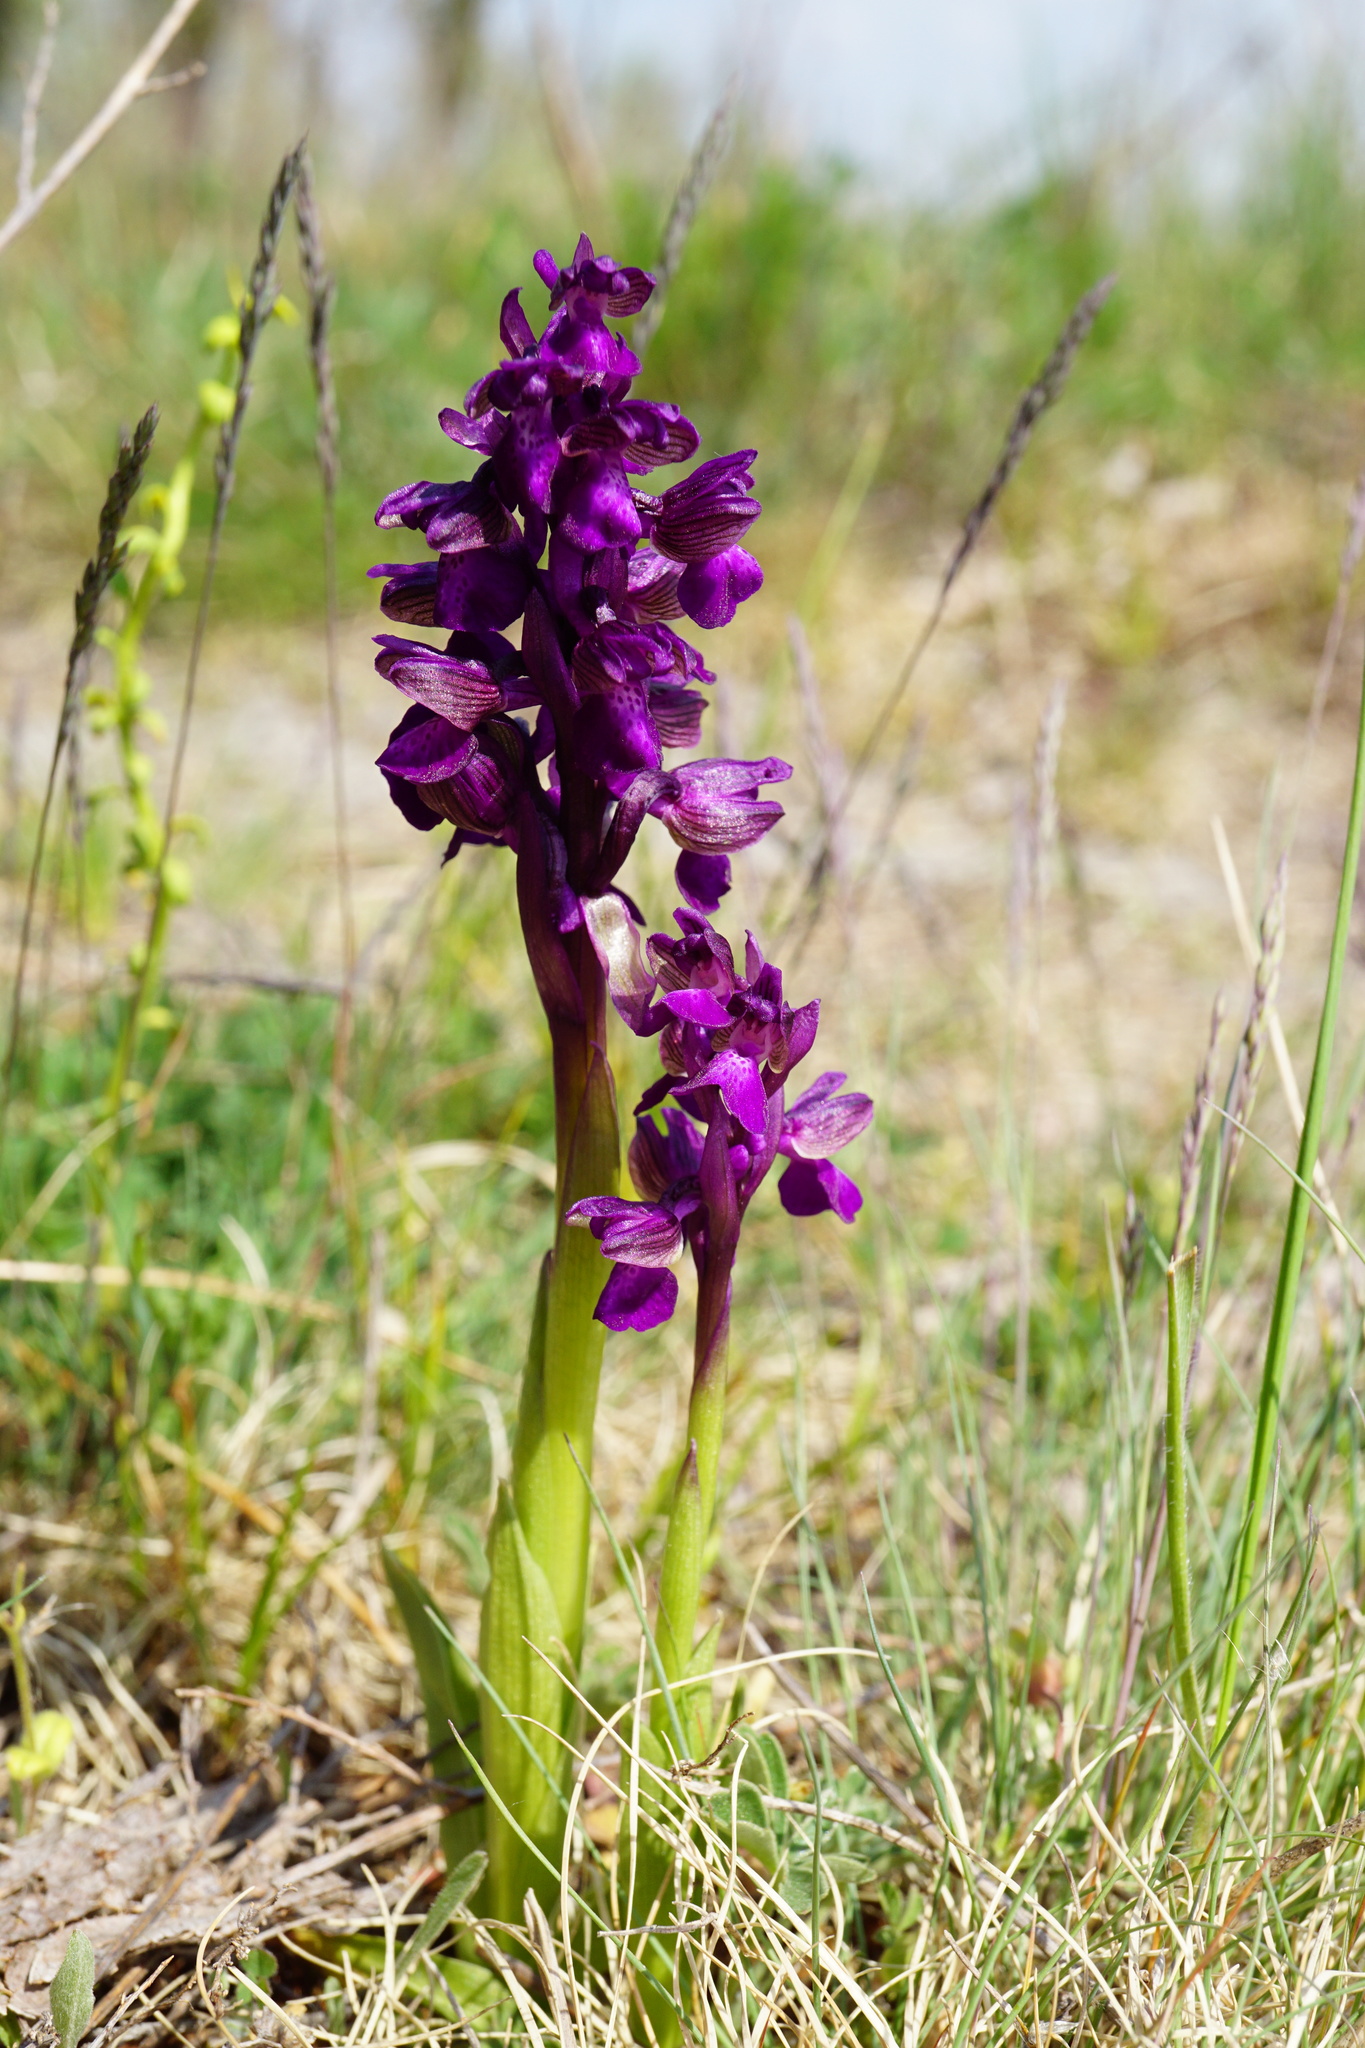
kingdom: Plantae
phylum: Tracheophyta
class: Liliopsida
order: Asparagales
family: Orchidaceae
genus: Anacamptis
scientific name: Anacamptis morio
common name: Green-winged orchid
